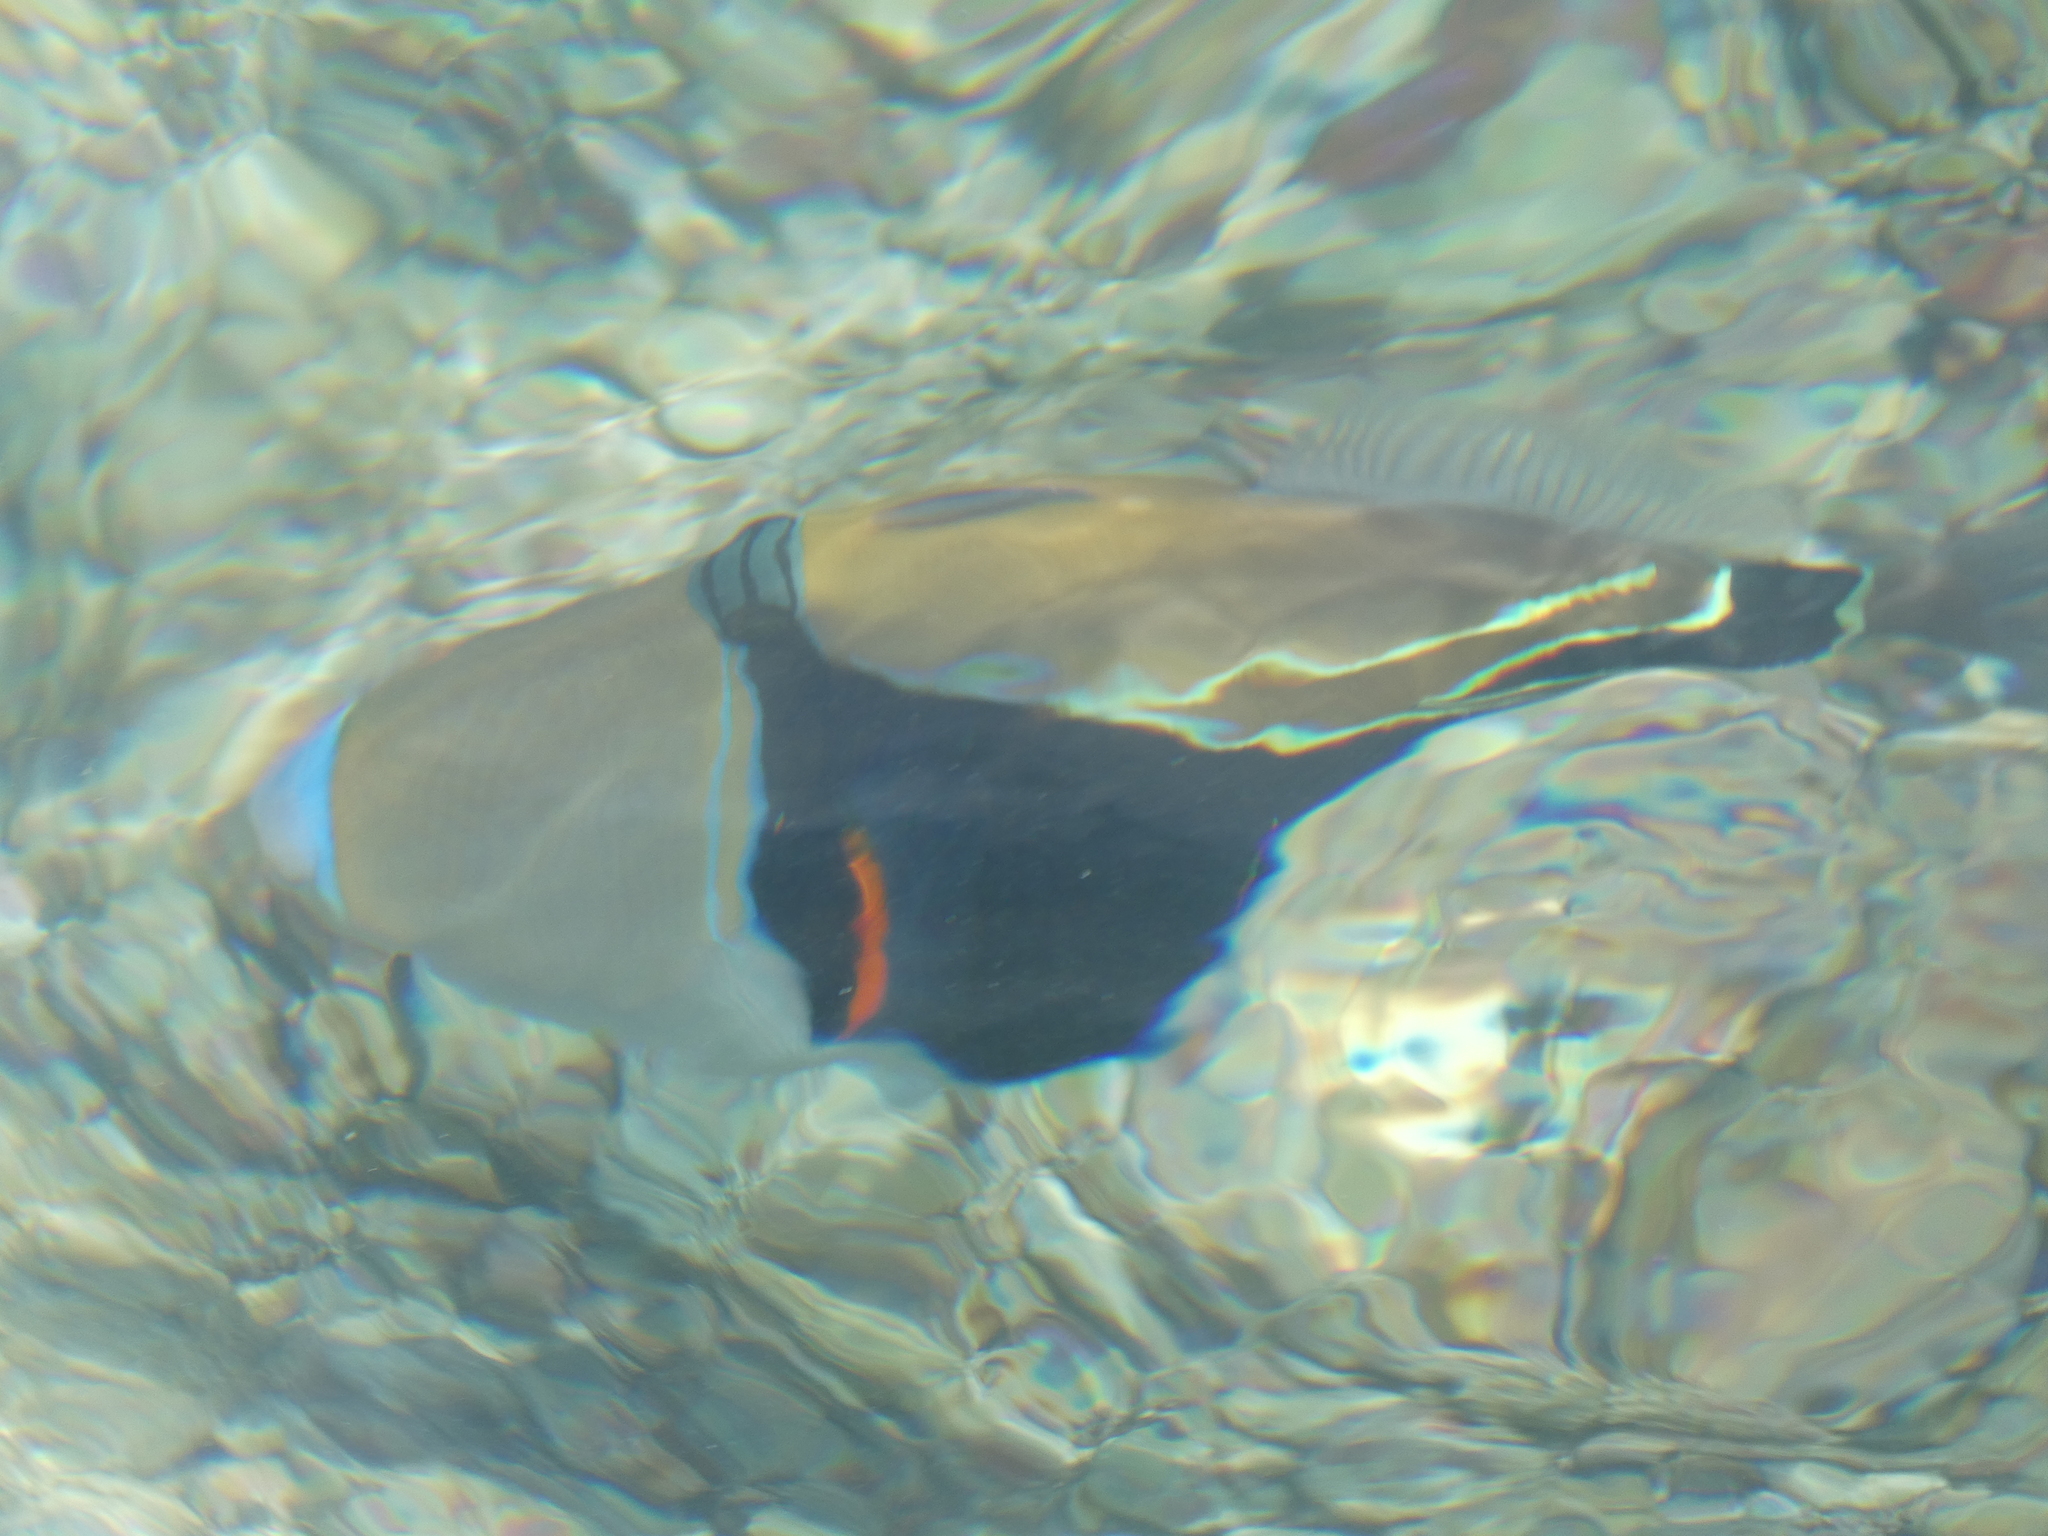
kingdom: Animalia
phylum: Chordata
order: Tetraodontiformes
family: Balistidae
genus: Rhinecanthus
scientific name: Rhinecanthus rectangulus
